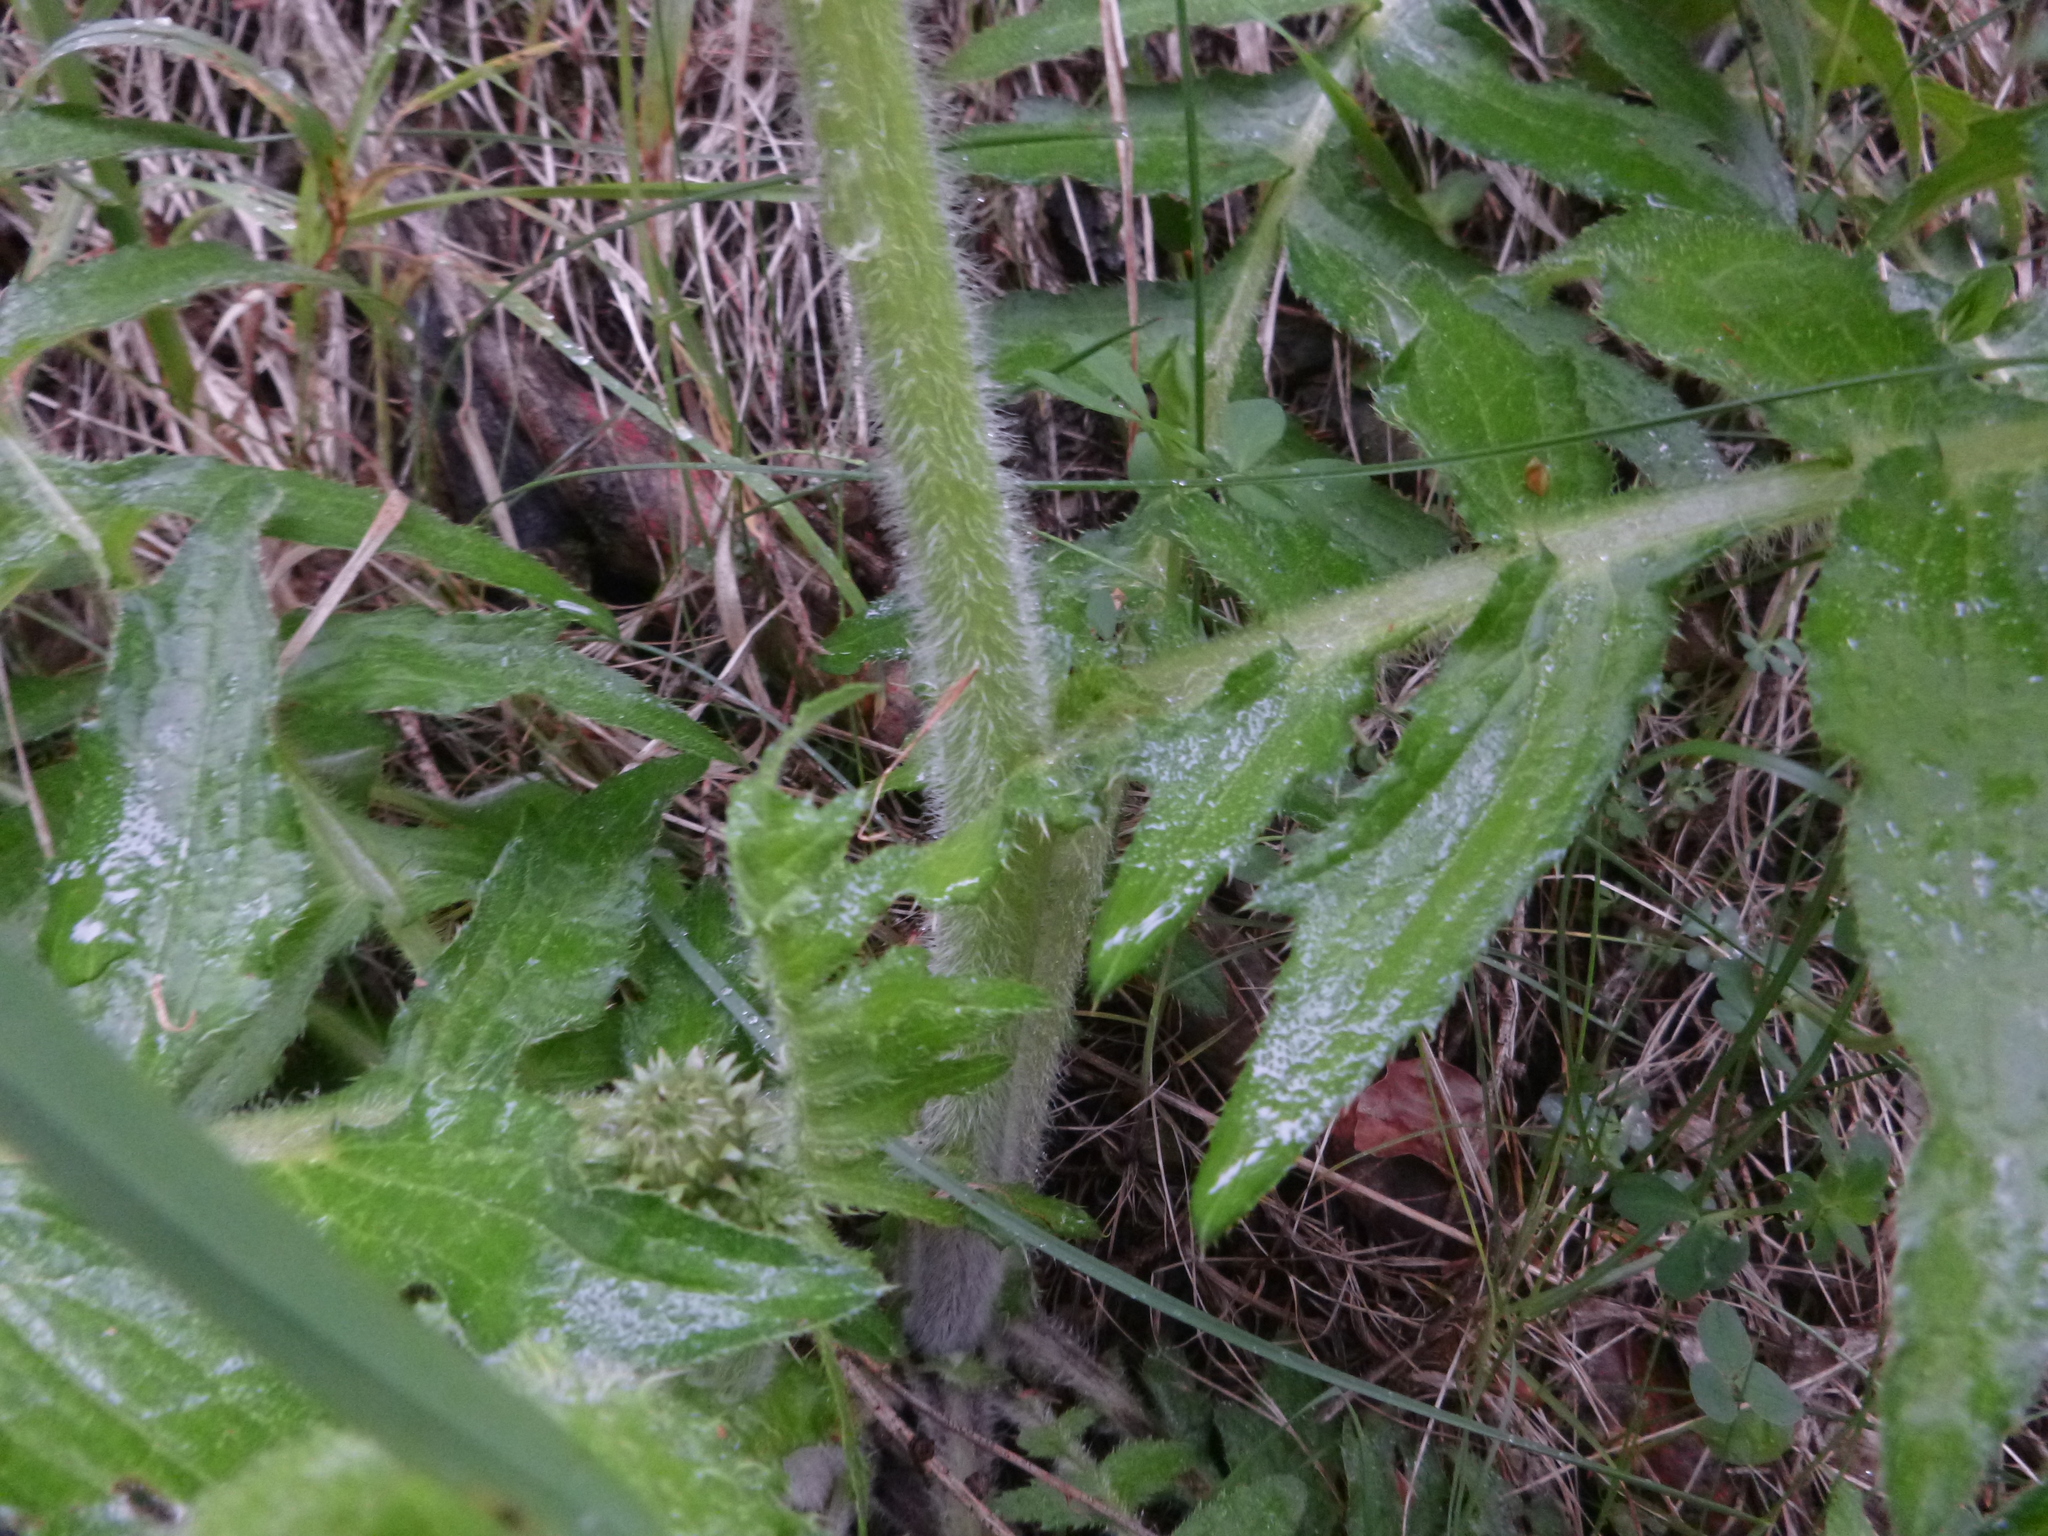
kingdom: Plantae
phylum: Tracheophyta
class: Magnoliopsida
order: Asterales
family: Asteraceae
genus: Cirsium
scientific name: Cirsium erisithales
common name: Yellow thistle
